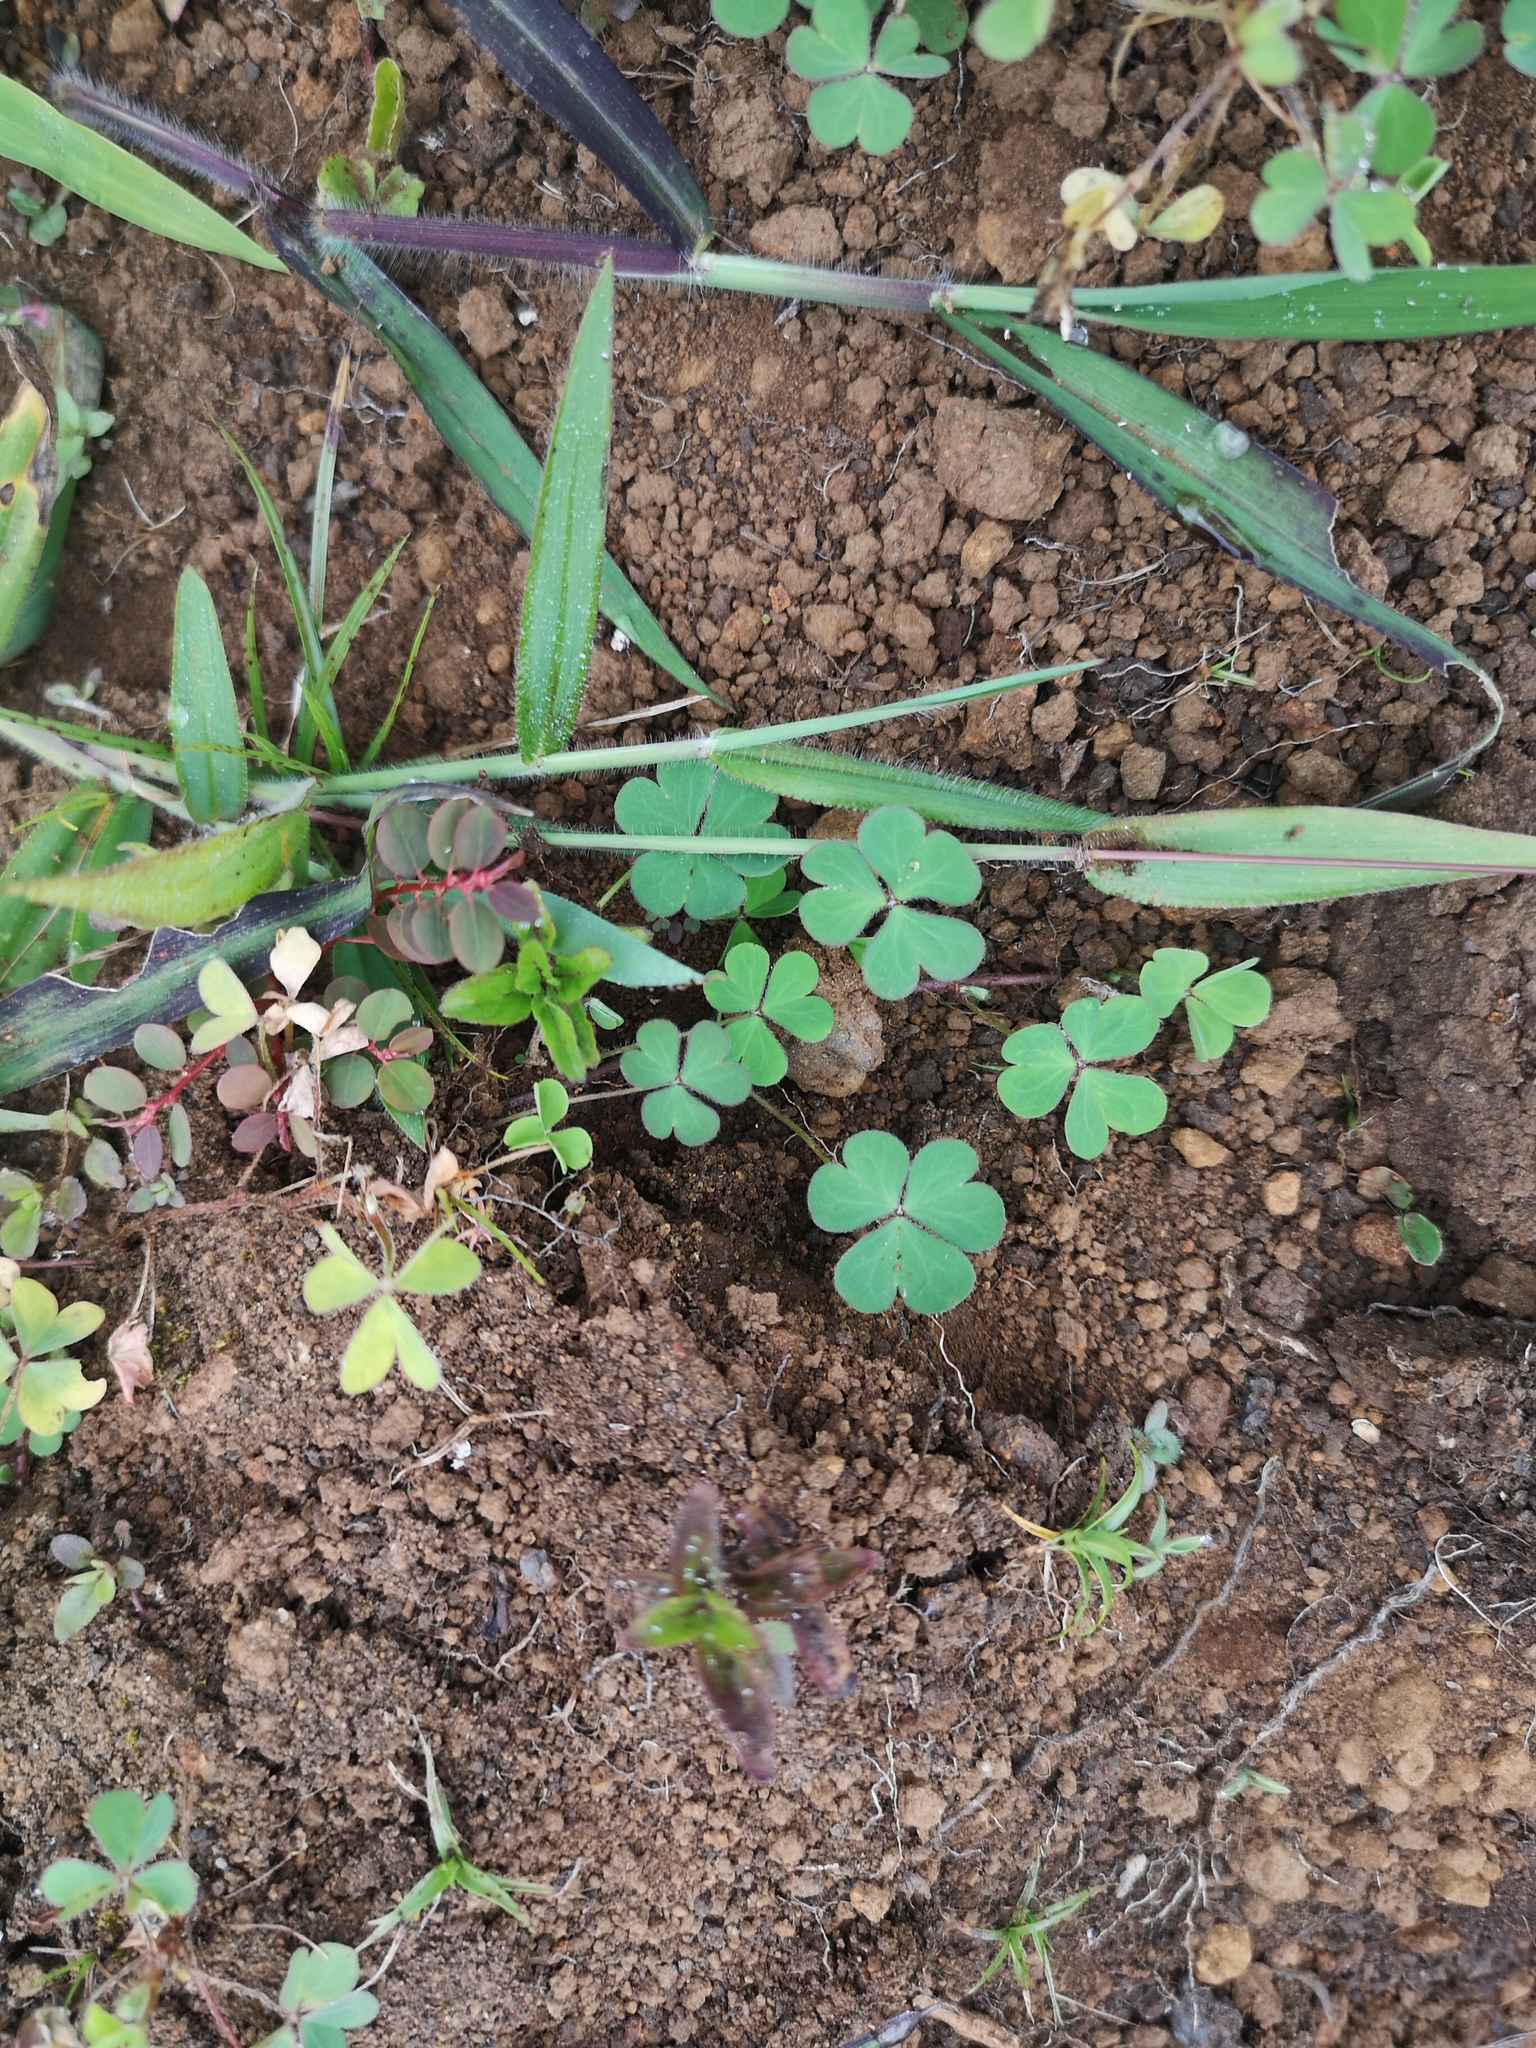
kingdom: Plantae
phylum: Tracheophyta
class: Magnoliopsida
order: Oxalidales
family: Oxalidaceae
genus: Oxalis
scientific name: Oxalis corniculata
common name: Procumbent yellow-sorrel
